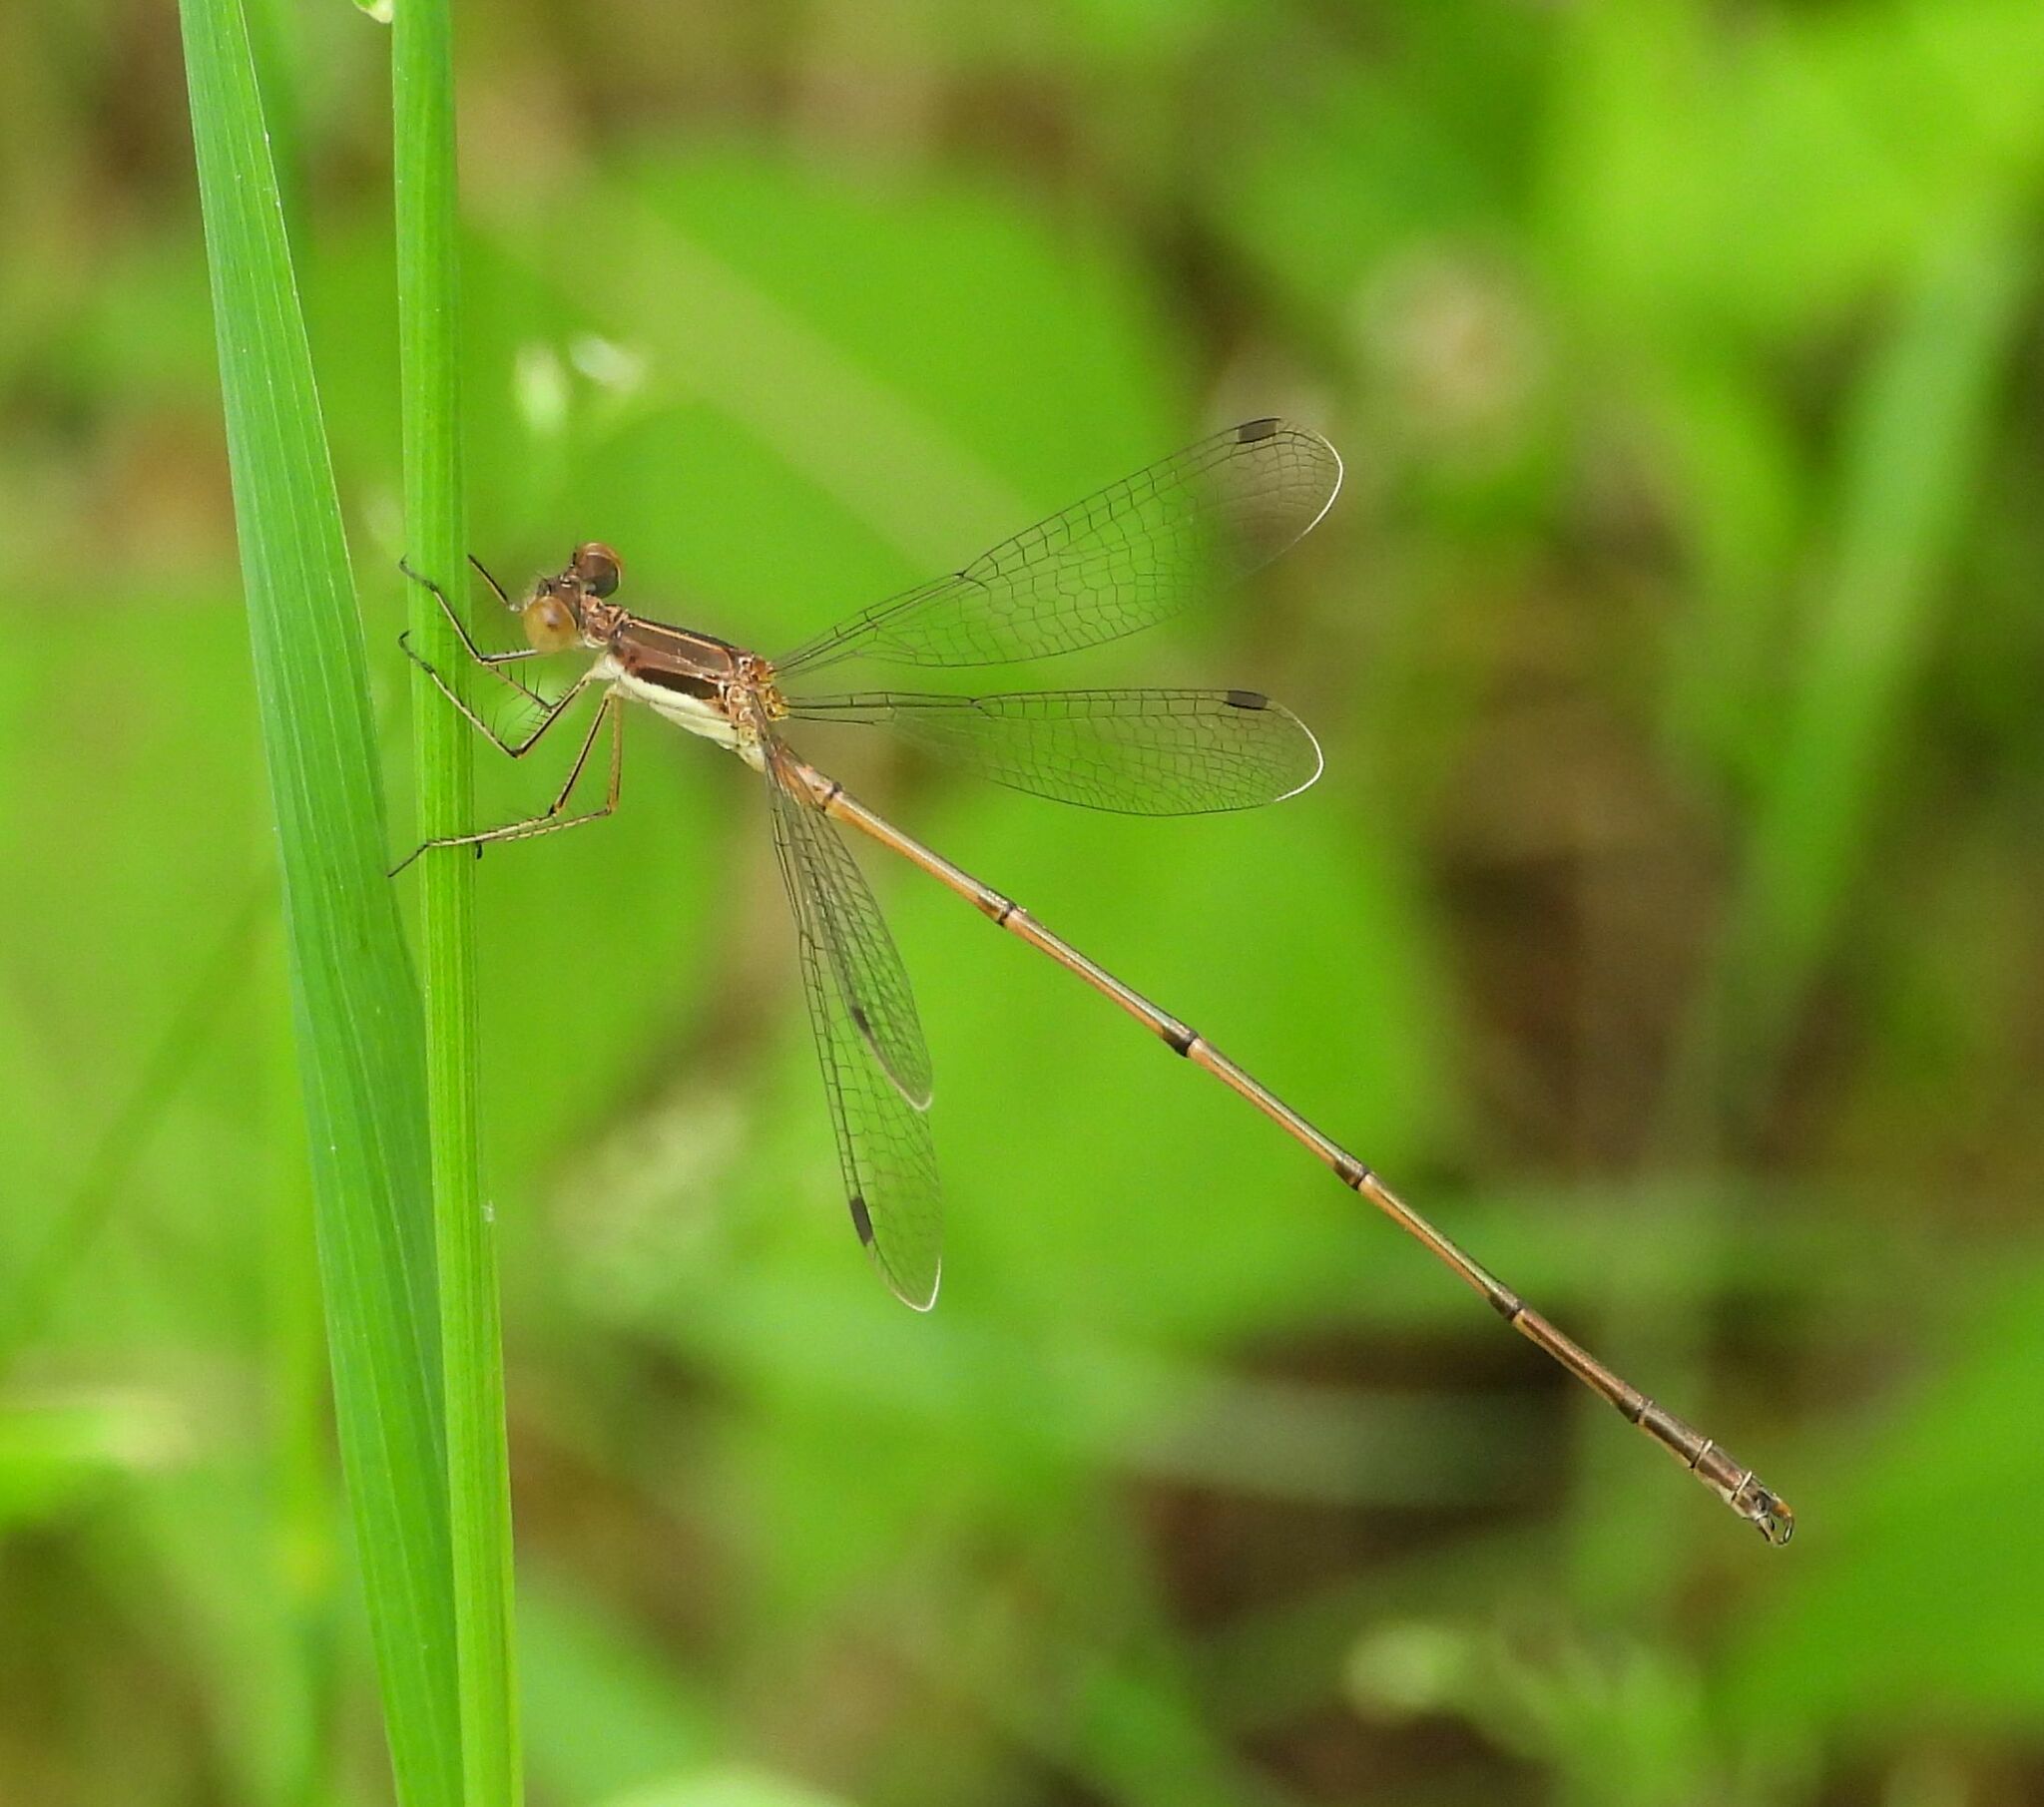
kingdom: Animalia
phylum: Arthropoda
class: Insecta
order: Odonata
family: Lestidae
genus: Lestes
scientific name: Lestes rectangularis
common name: Slender spreadwing
